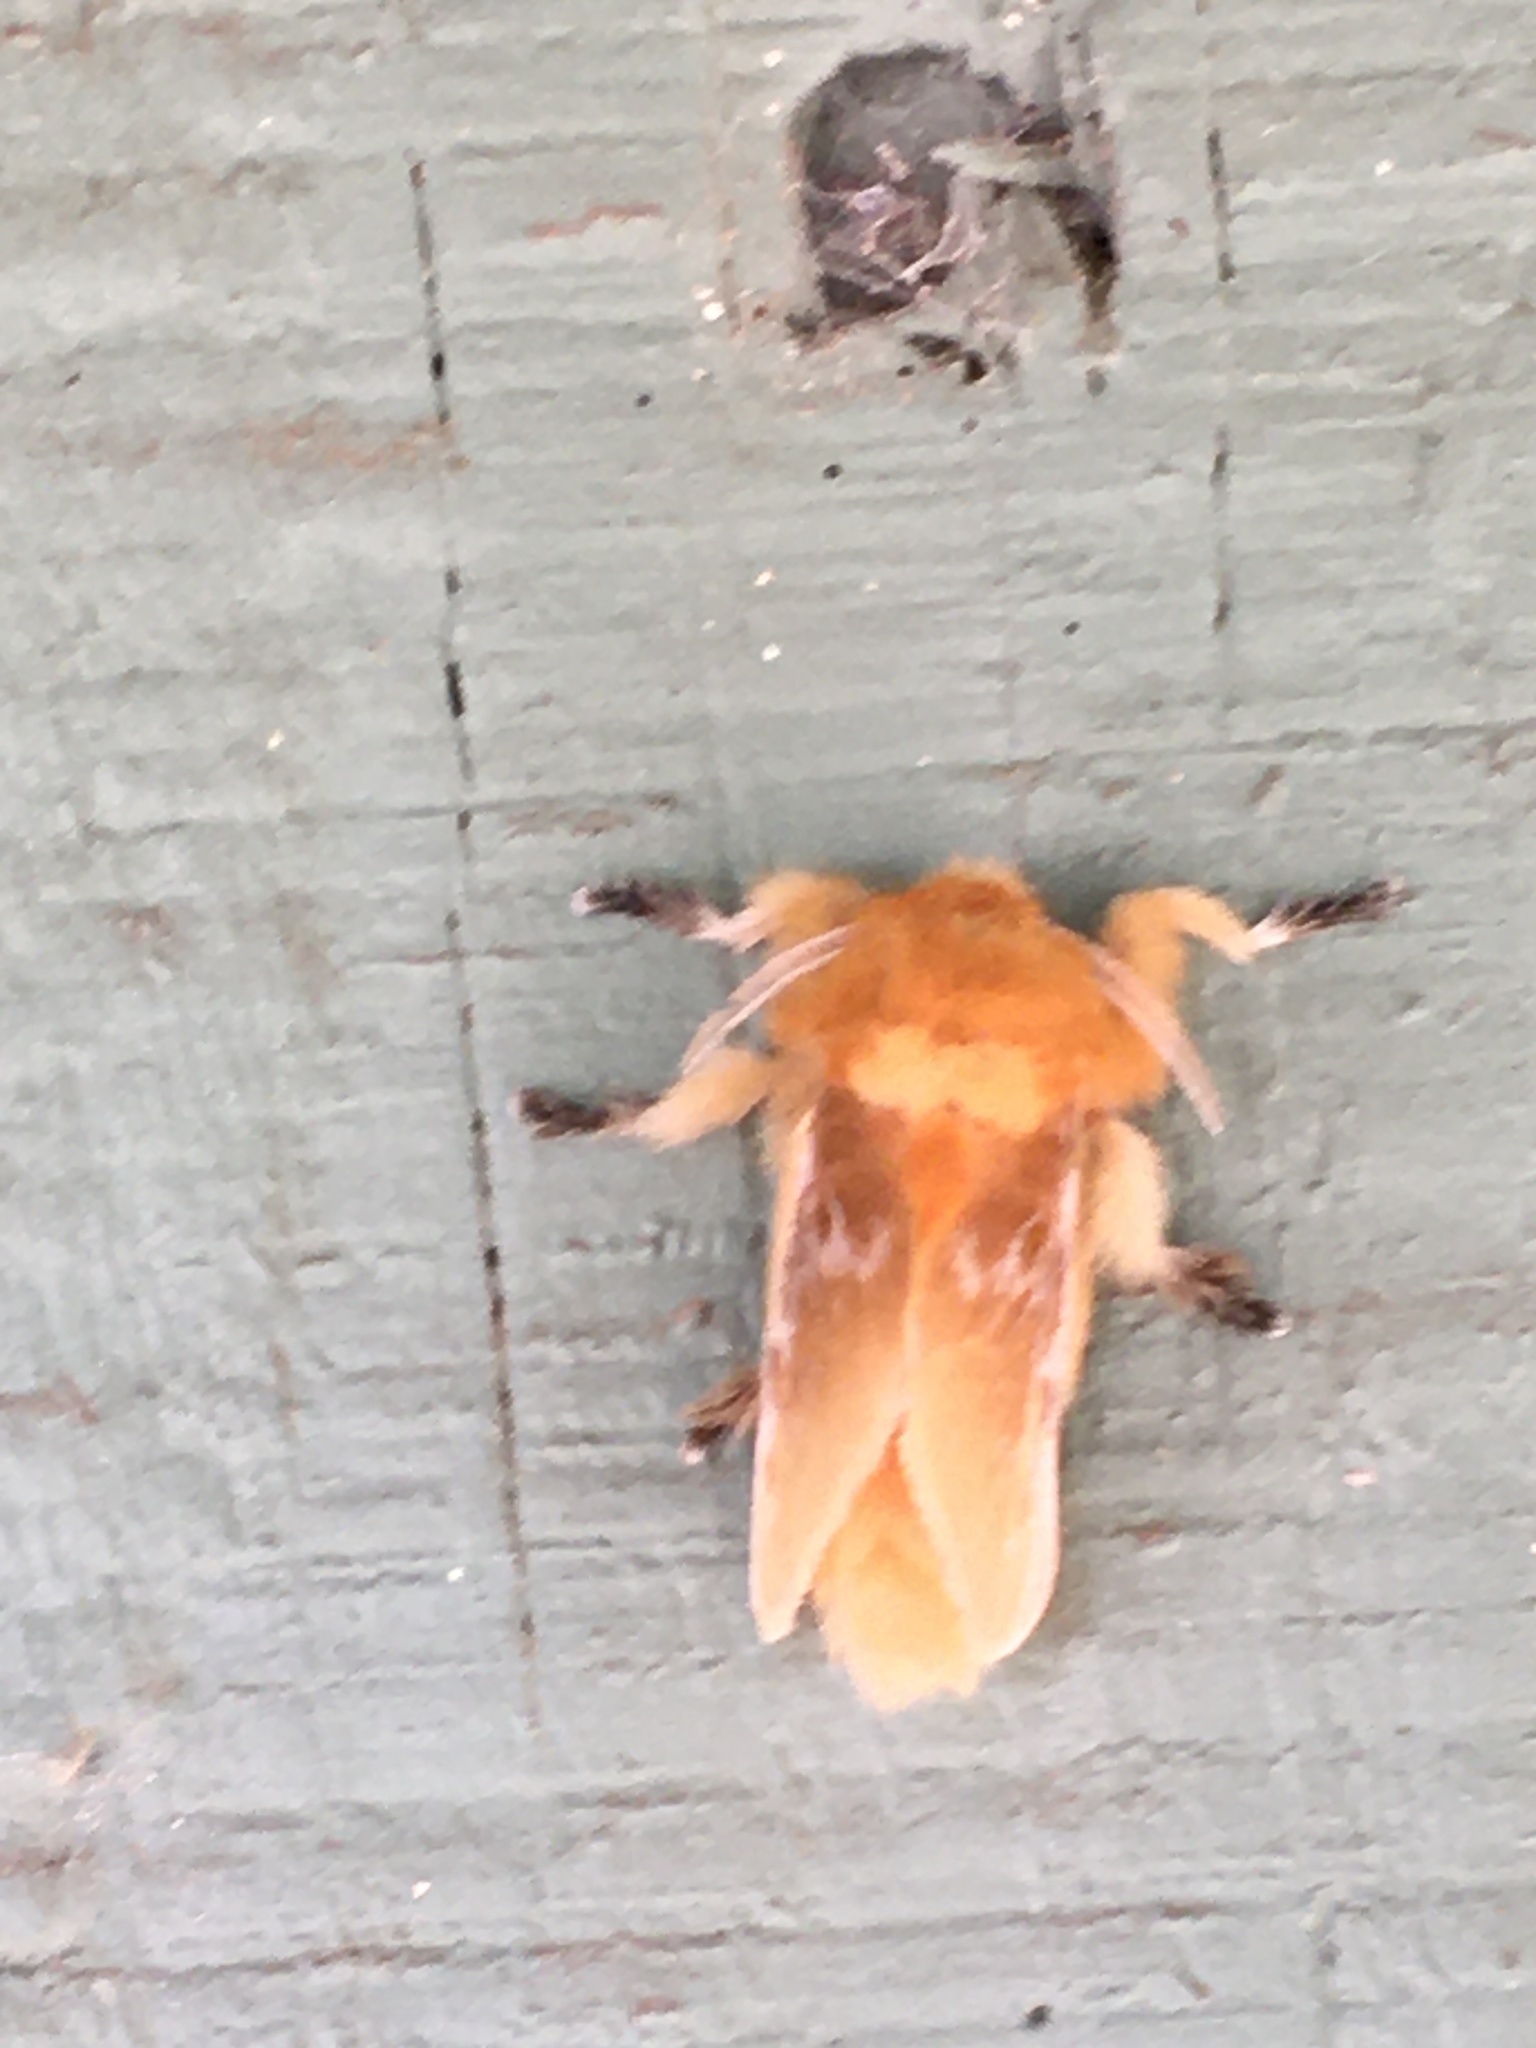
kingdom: Animalia
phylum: Arthropoda
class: Insecta
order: Lepidoptera
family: Megalopygidae
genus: Megalopyge
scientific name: Megalopyge opercularis
